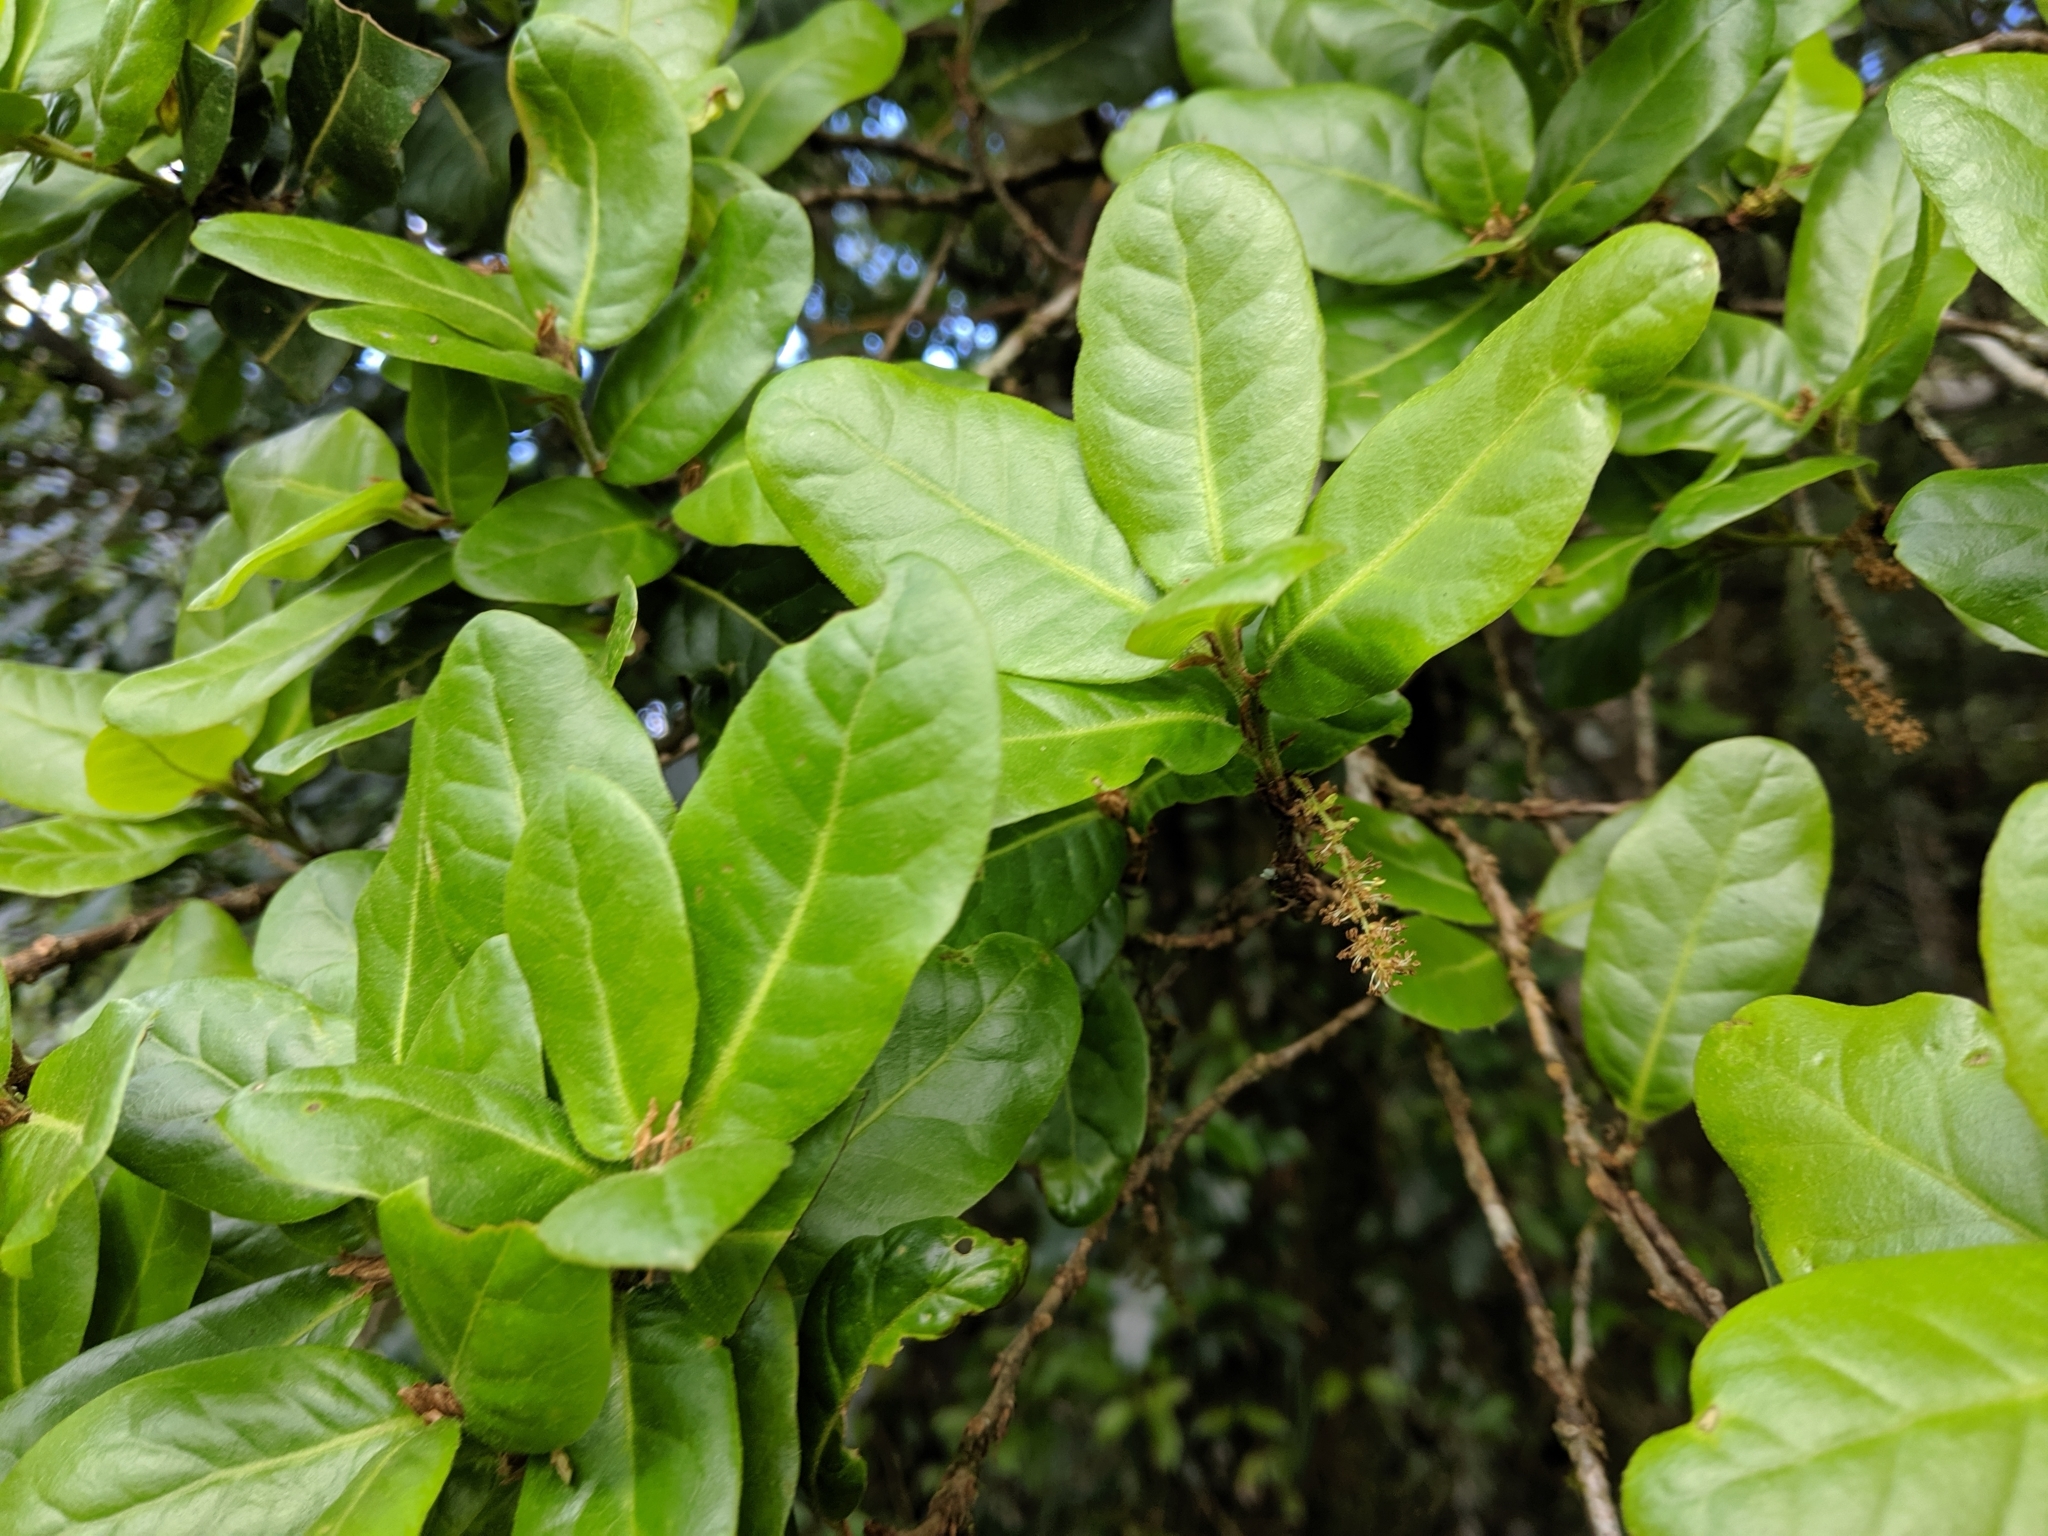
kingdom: Plantae
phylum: Tracheophyta
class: Magnoliopsida
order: Fagales
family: Fagaceae
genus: Quercus
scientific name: Quercus spinosa
